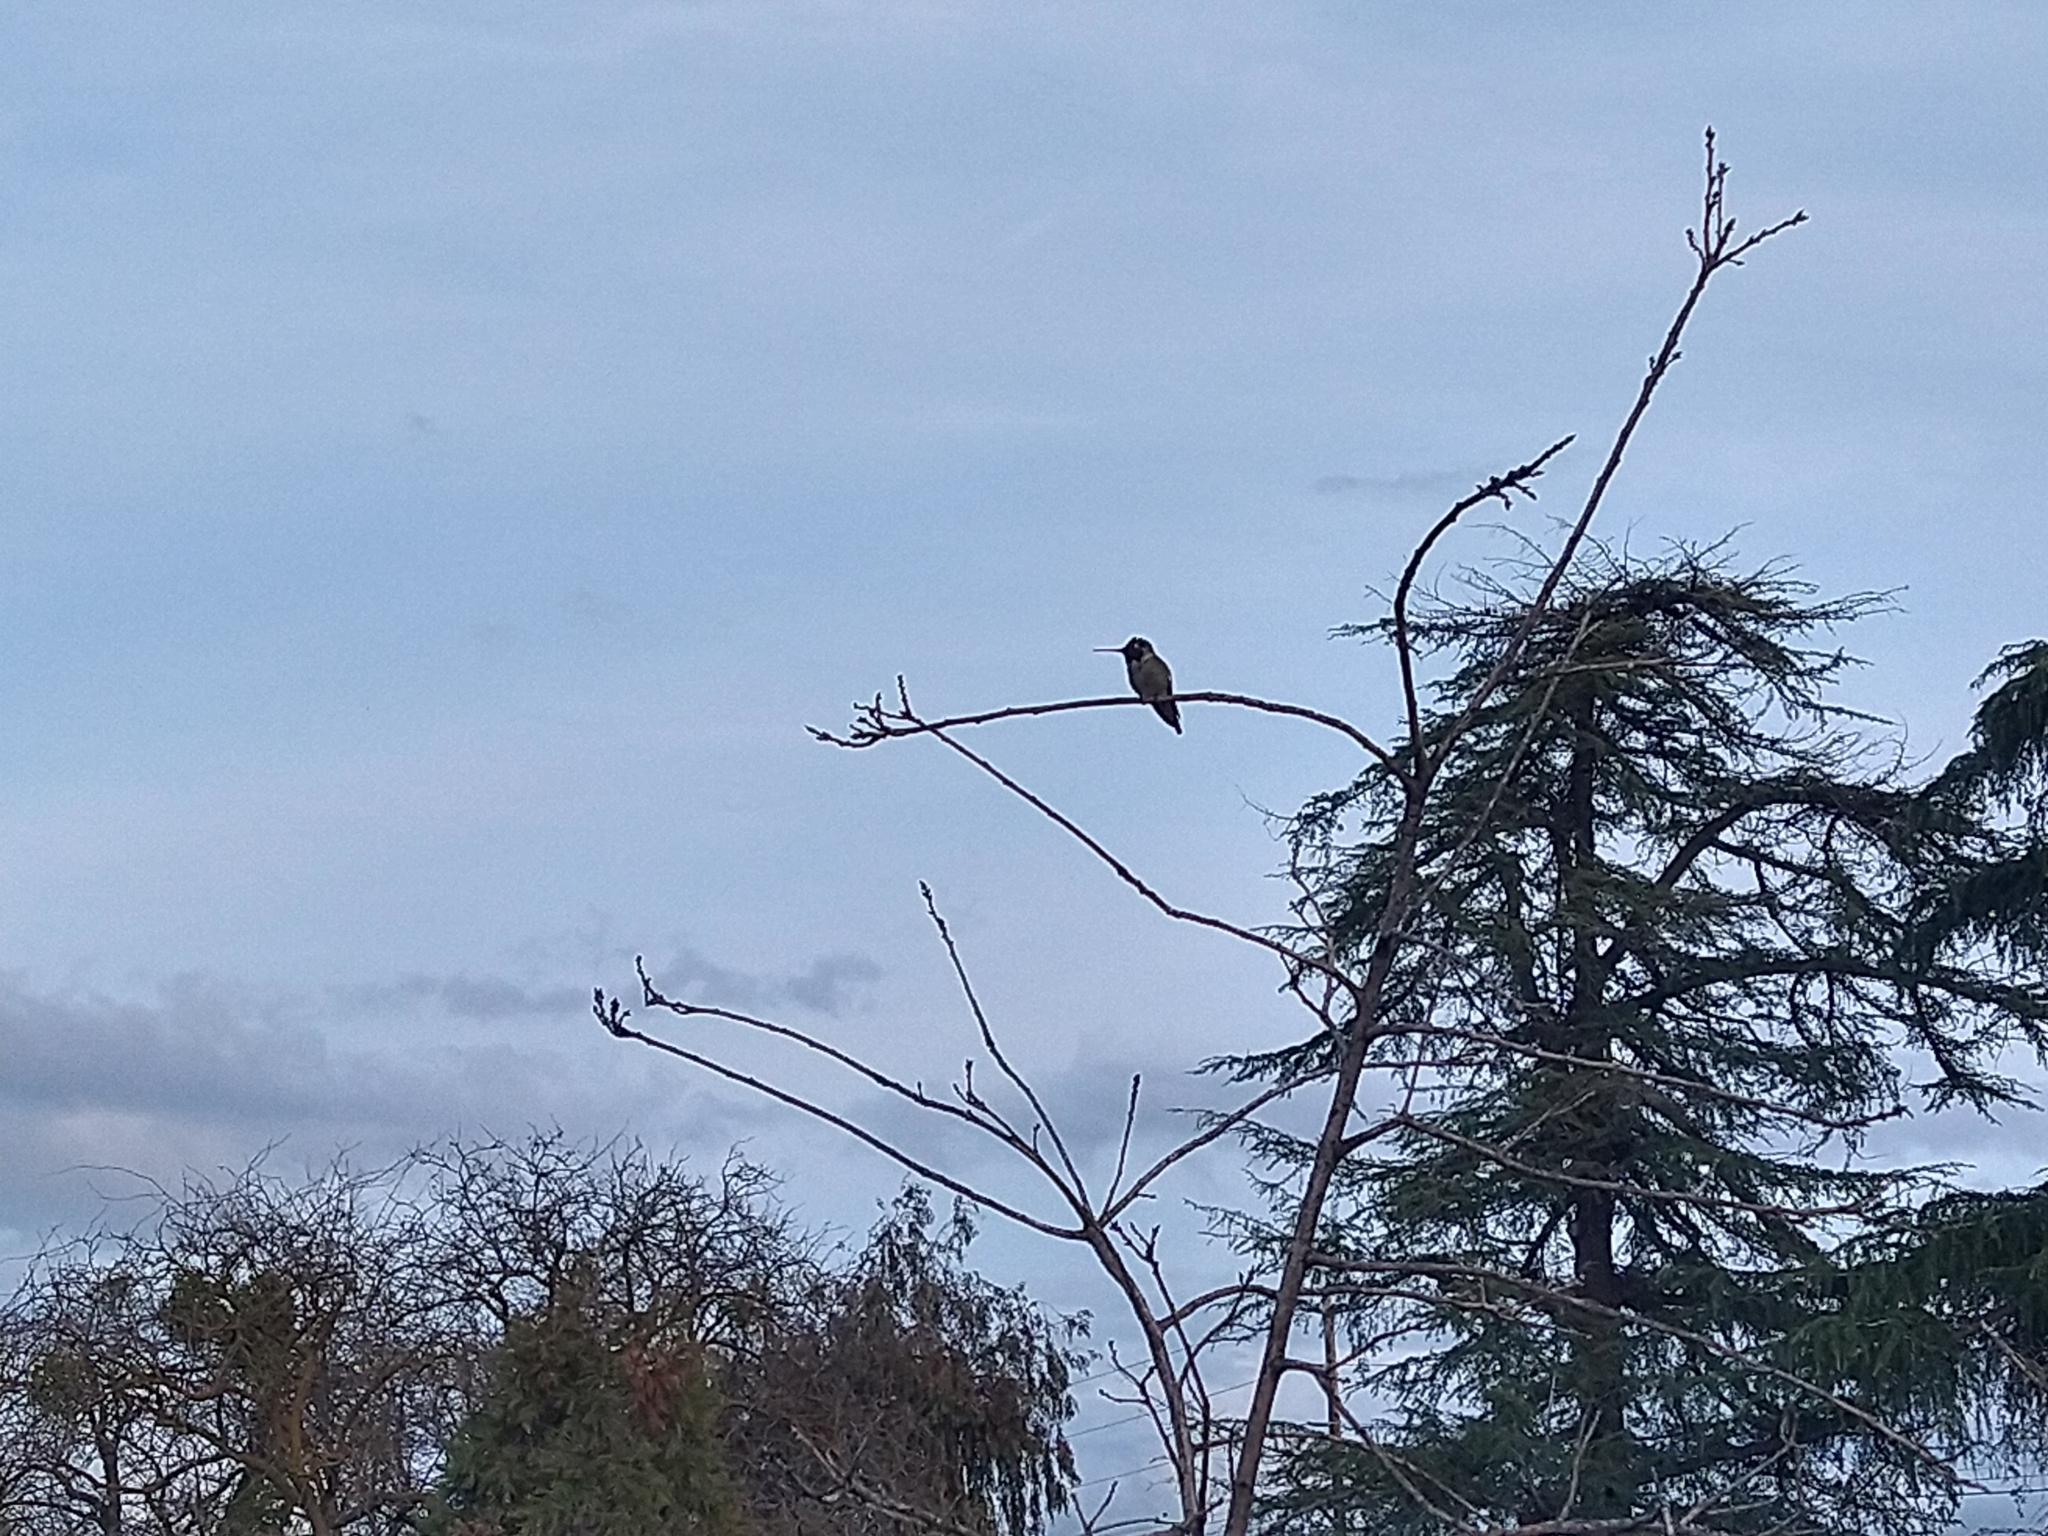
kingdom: Animalia
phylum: Chordata
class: Aves
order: Apodiformes
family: Trochilidae
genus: Calypte
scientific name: Calypte anna
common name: Anna's hummingbird
